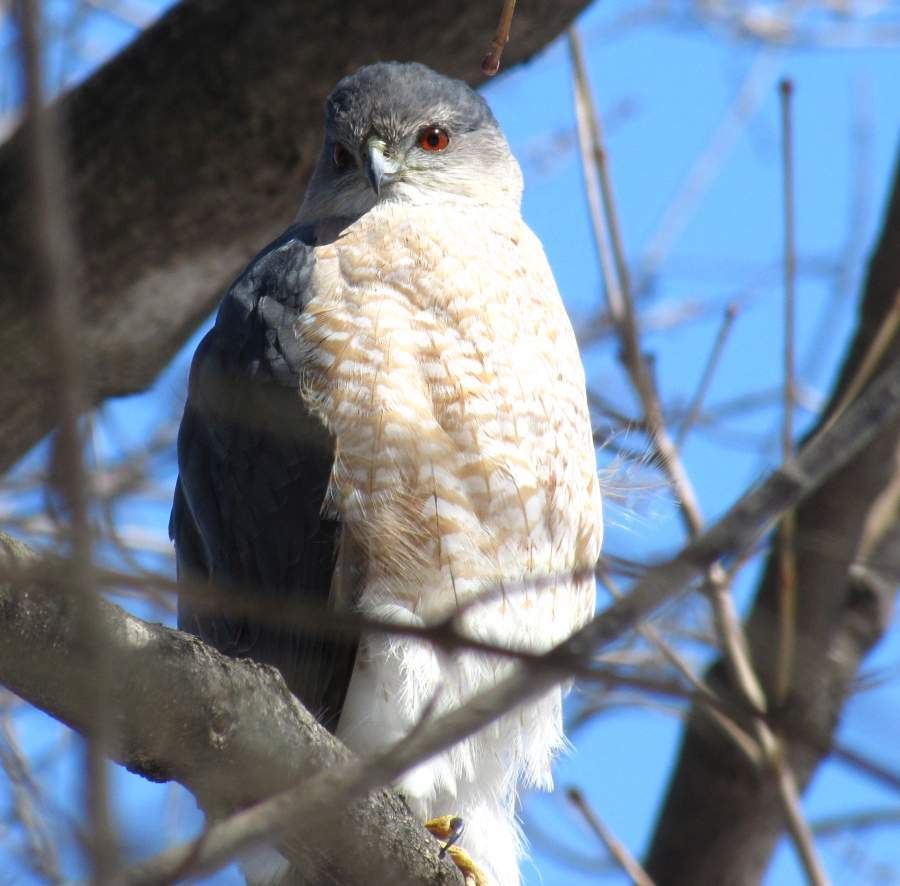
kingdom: Animalia
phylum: Chordata
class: Aves
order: Accipitriformes
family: Accipitridae
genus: Accipiter
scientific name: Accipiter cooperii
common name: Cooper's hawk
